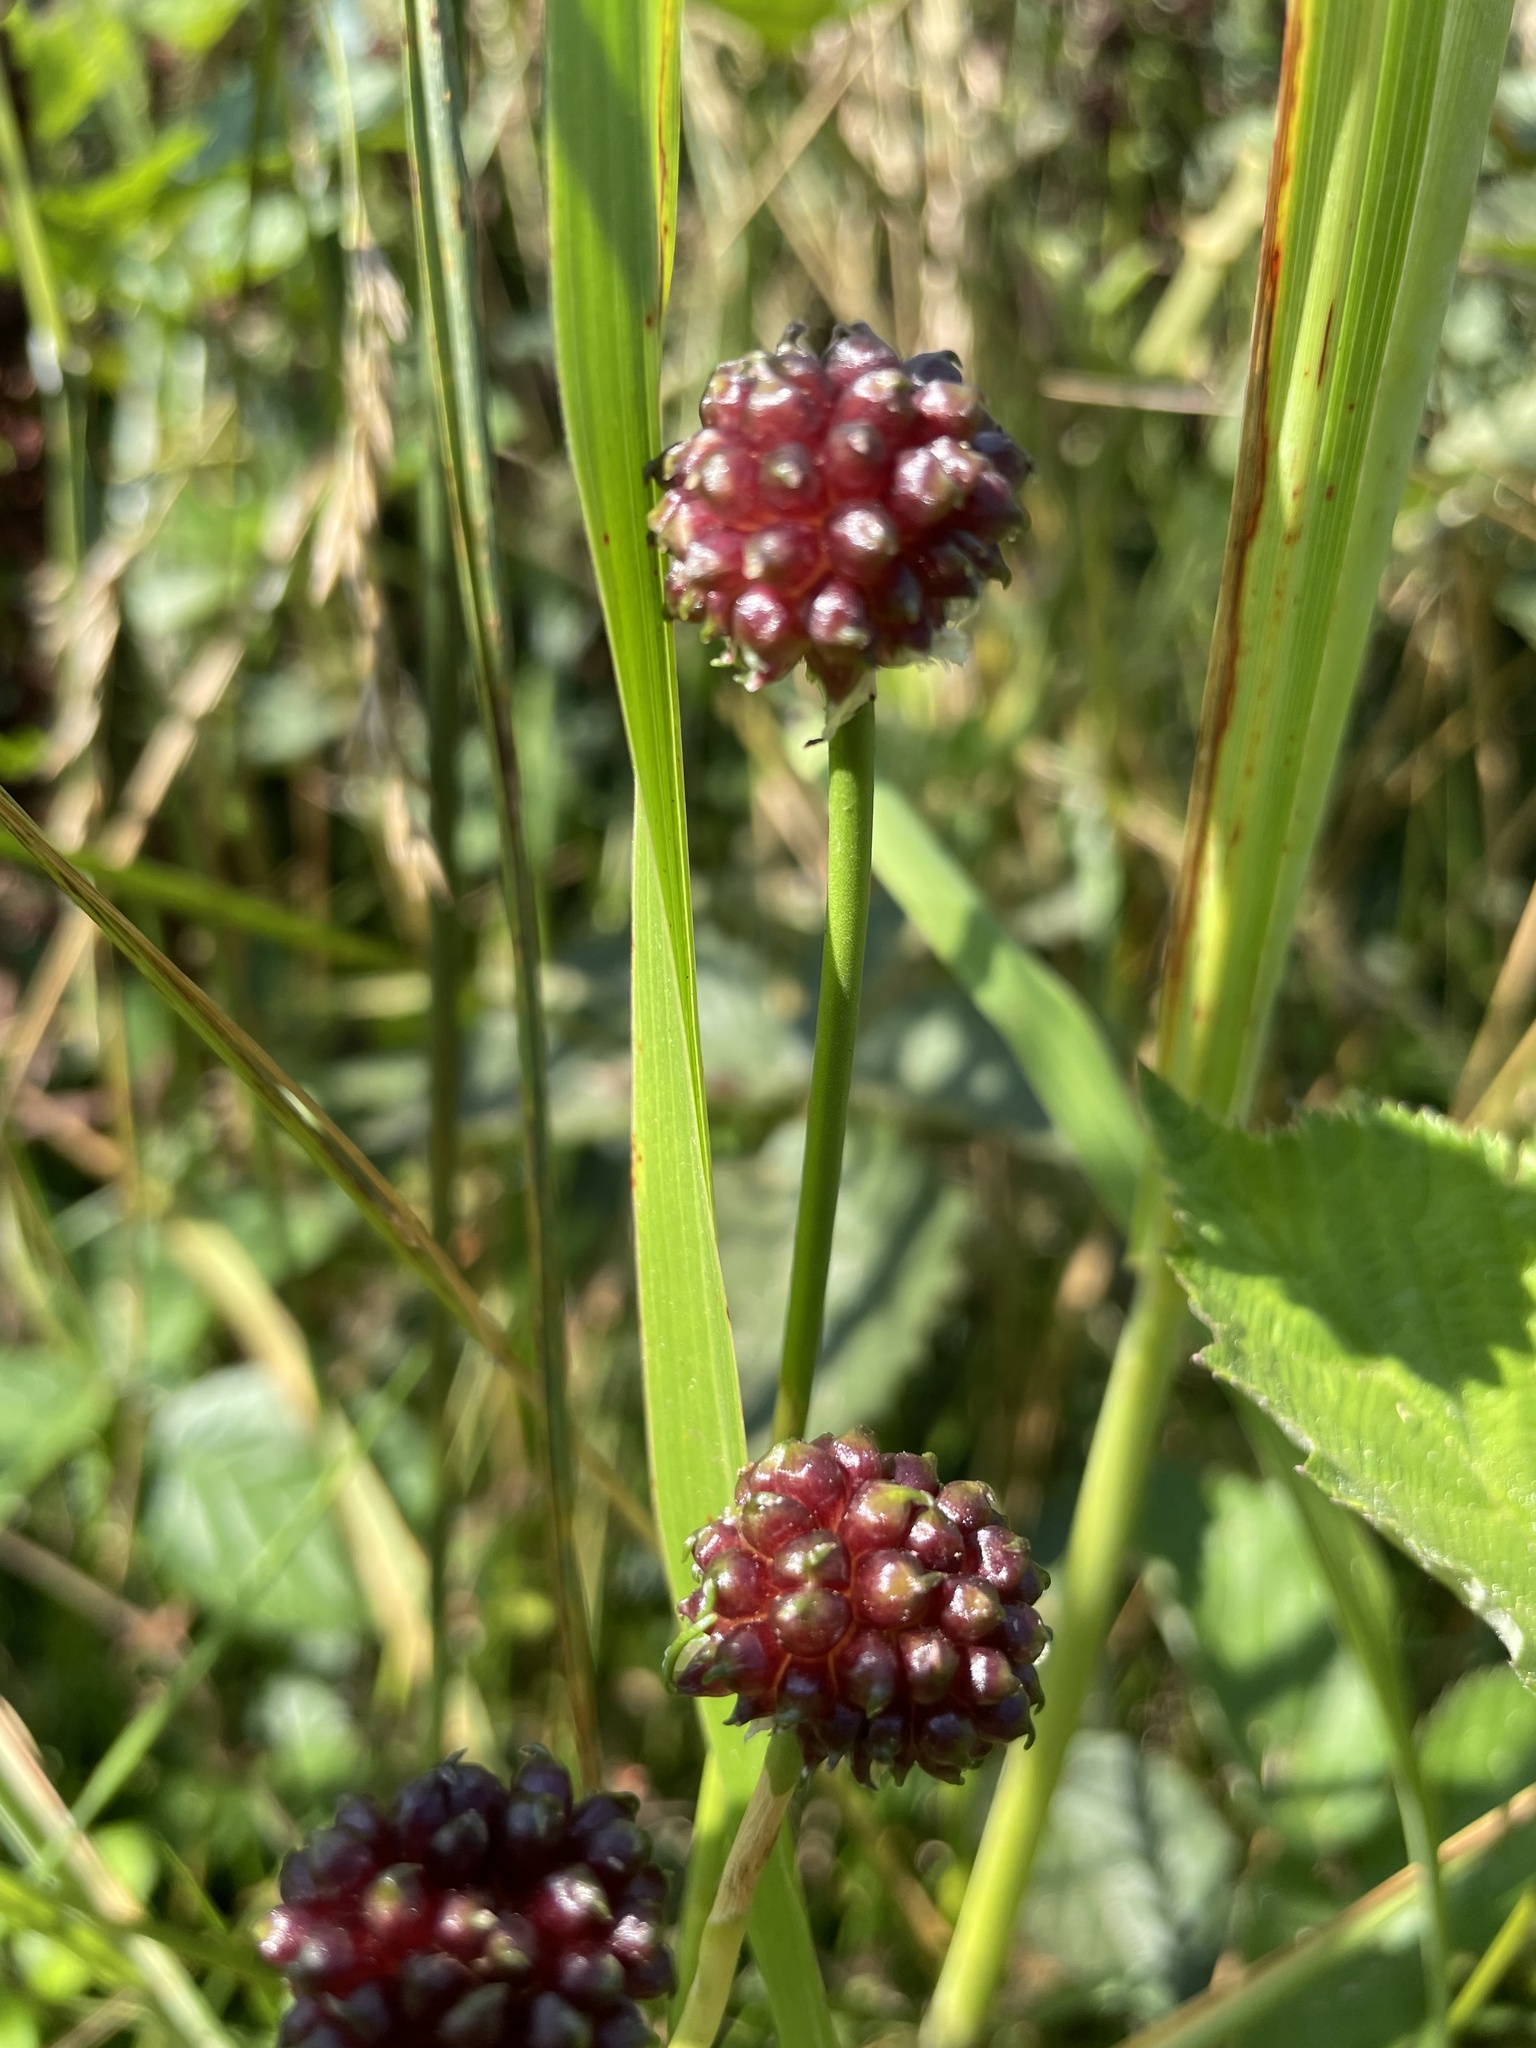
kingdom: Plantae
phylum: Tracheophyta
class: Liliopsida
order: Asparagales
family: Amaryllidaceae
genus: Allium
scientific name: Allium vineale
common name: Crow garlic
